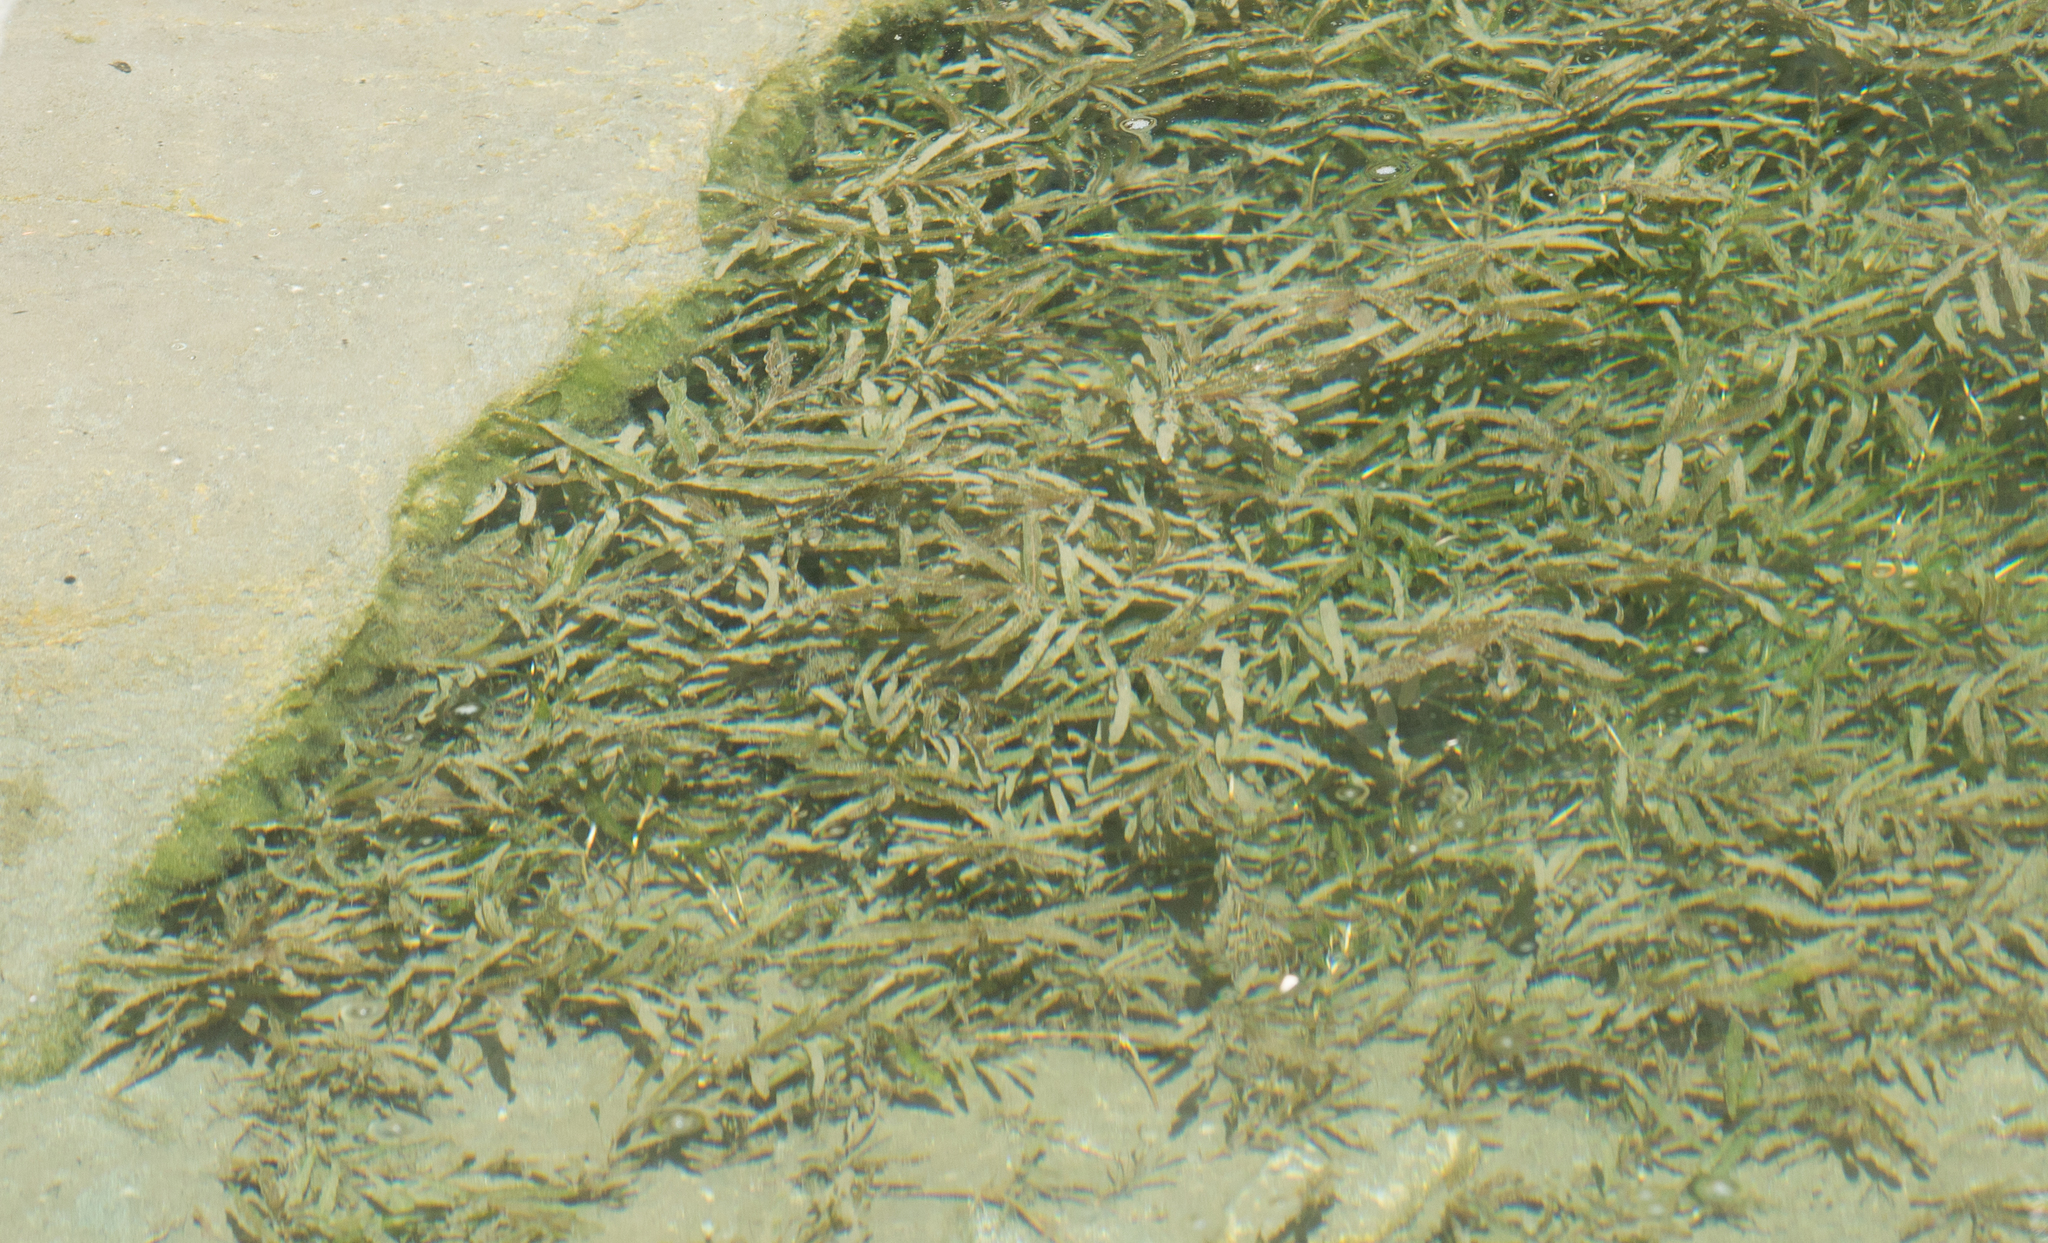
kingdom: Plantae
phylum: Tracheophyta
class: Liliopsida
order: Alismatales
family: Potamogetonaceae
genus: Potamogeton
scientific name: Potamogeton crispus
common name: Curled pondweed
